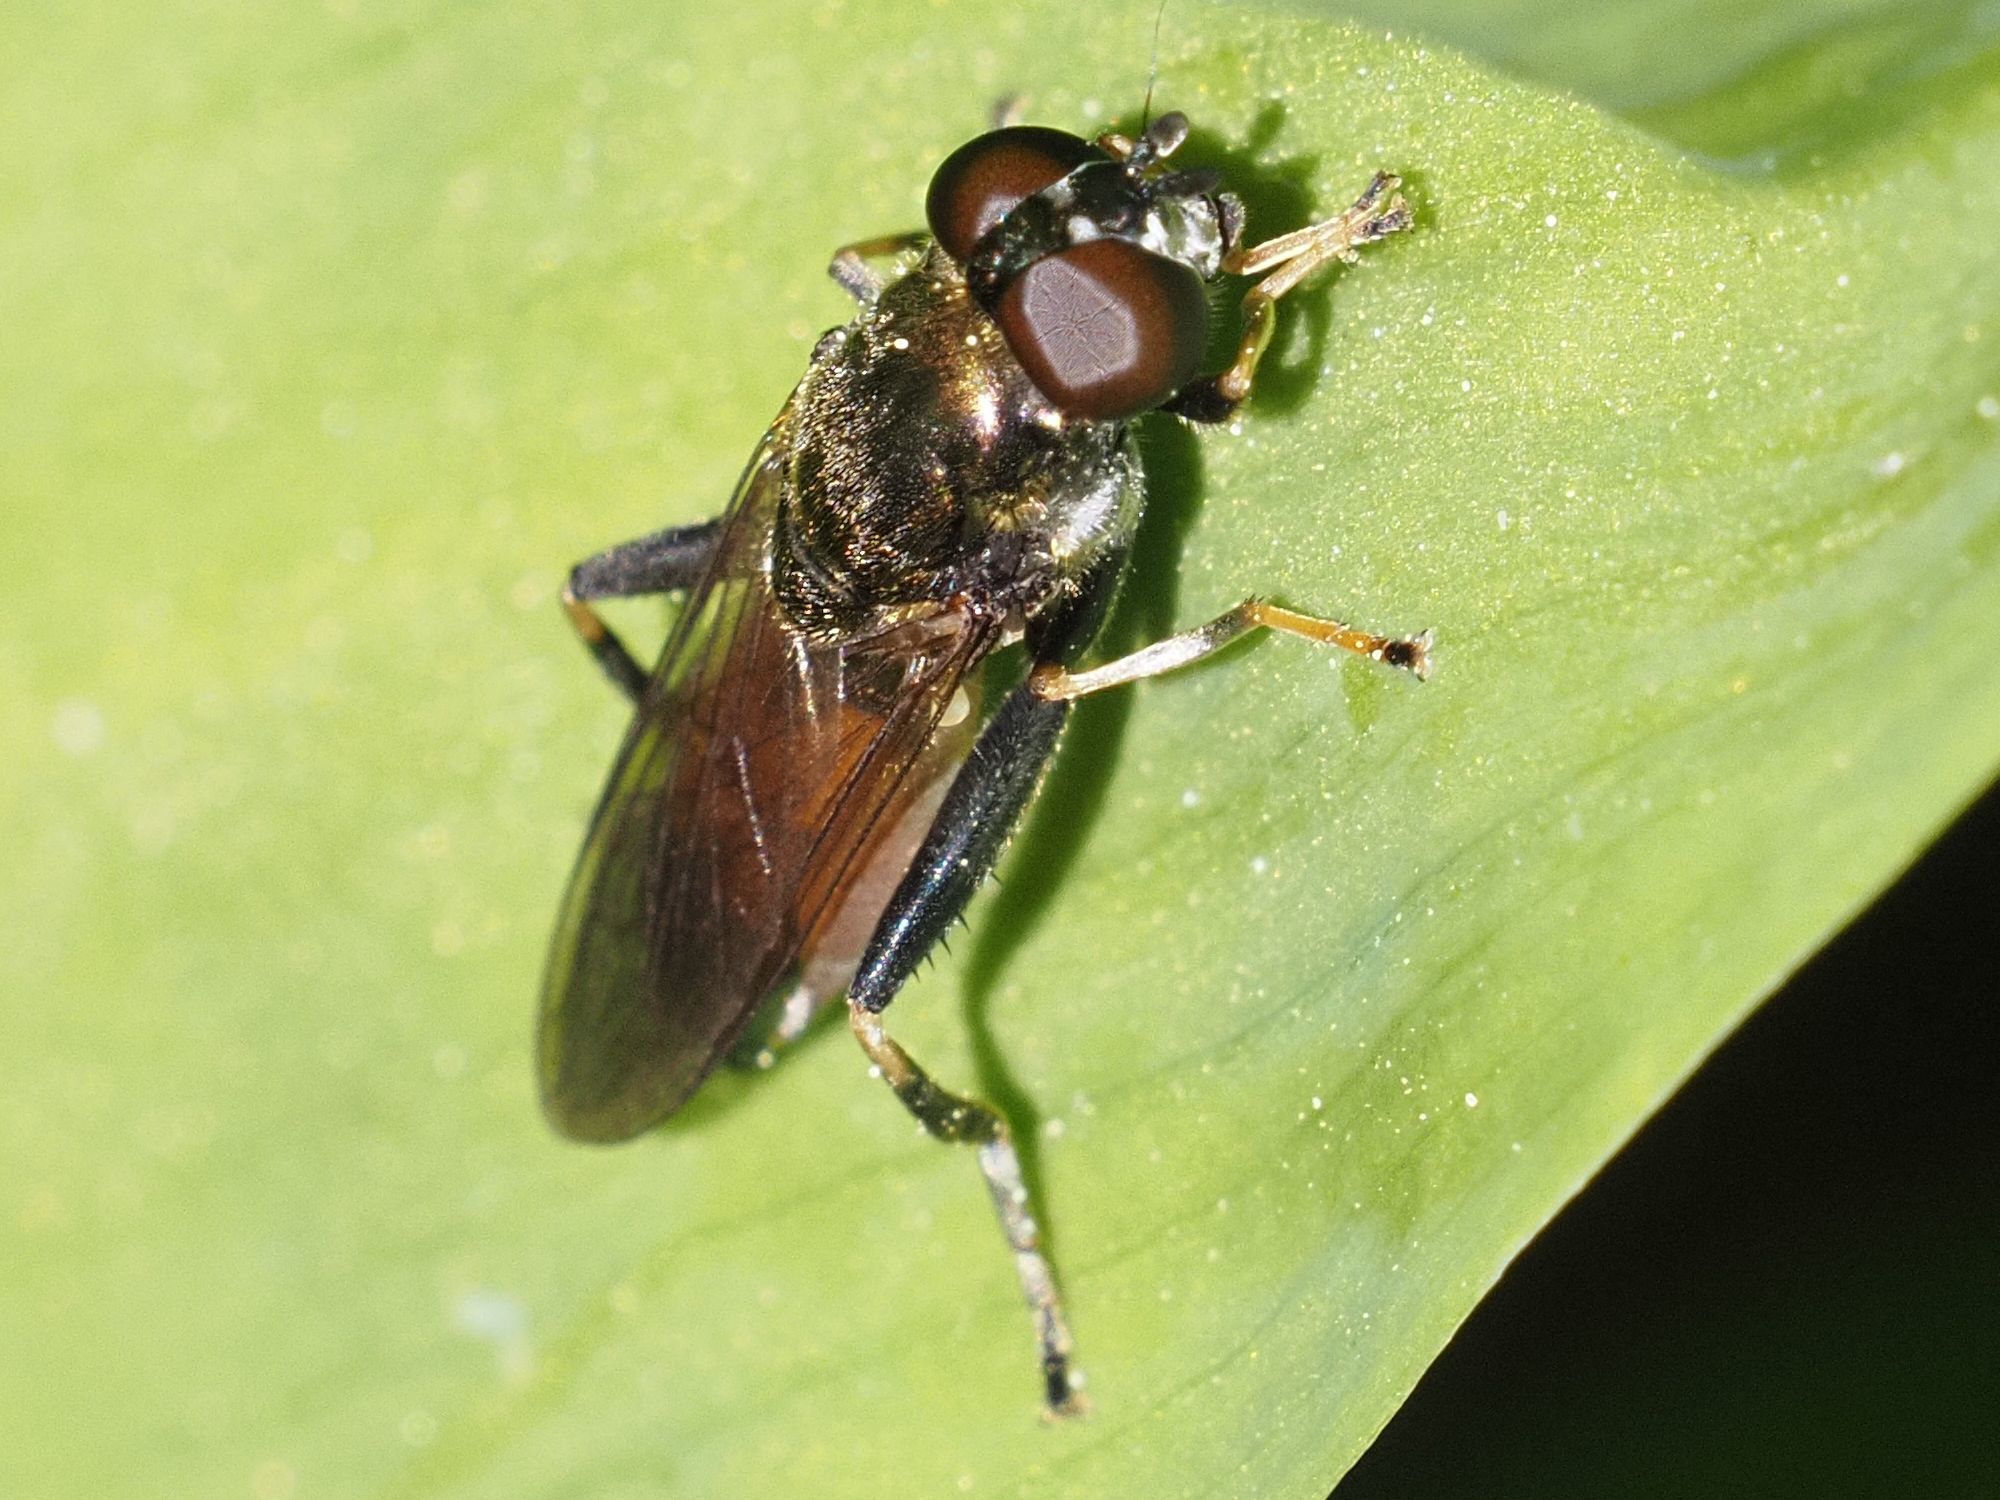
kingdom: Animalia
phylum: Arthropoda
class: Insecta
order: Diptera
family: Syrphidae
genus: Xylota
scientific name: Xylota segnis
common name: Brown-toed forest fly
